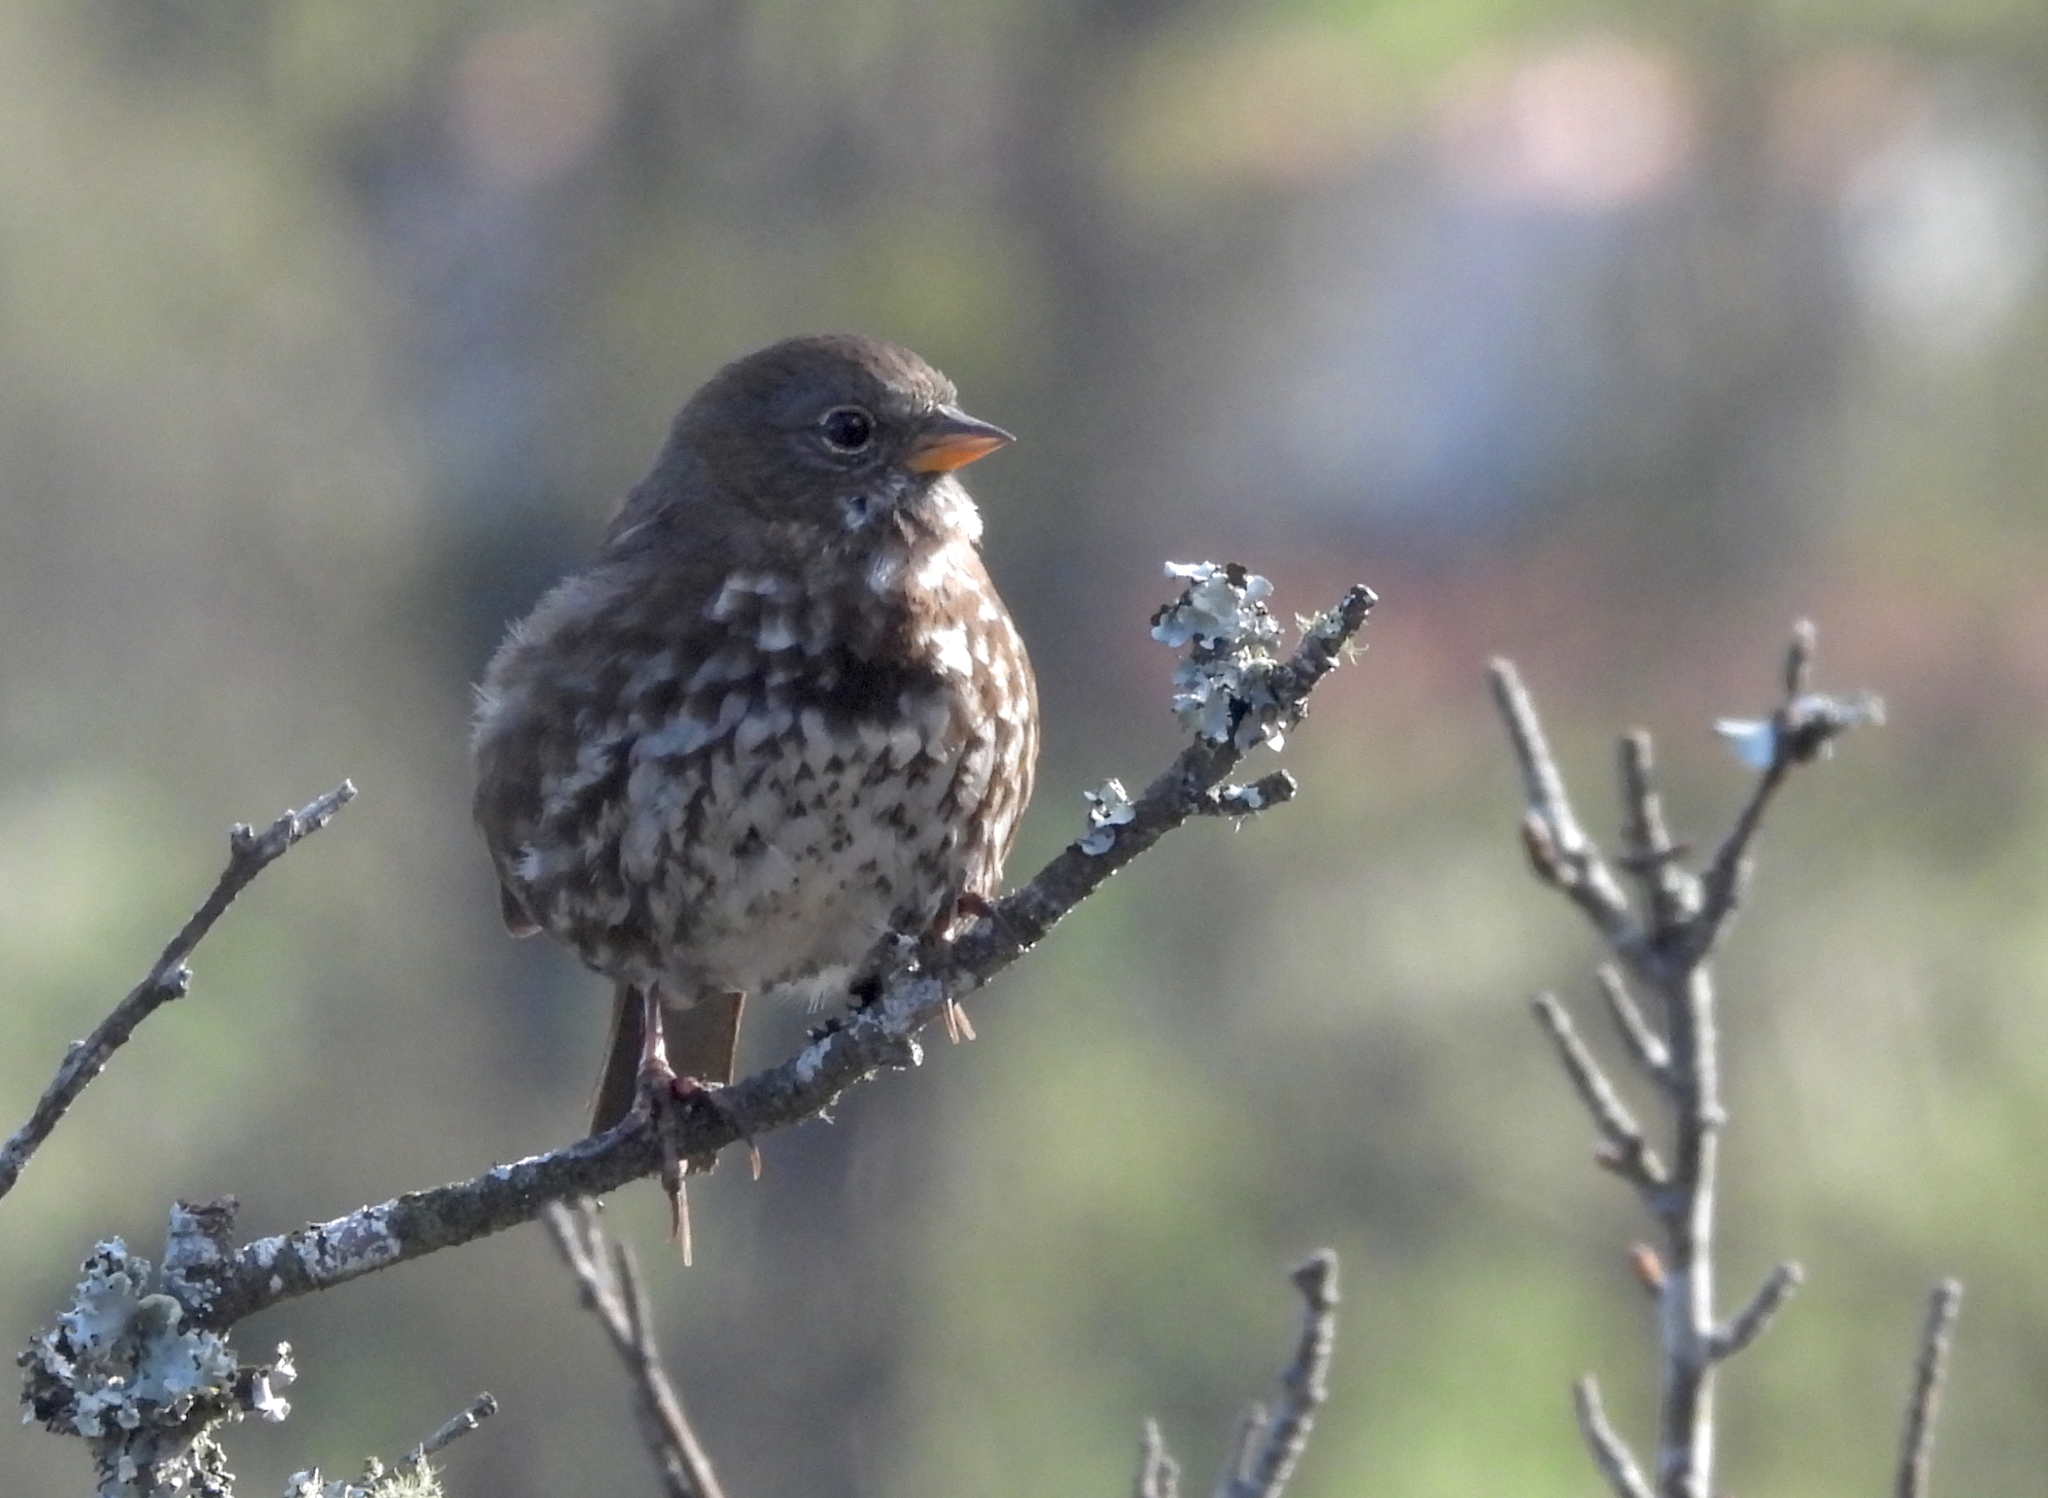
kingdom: Animalia
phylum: Chordata
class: Aves
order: Passeriformes
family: Passerellidae
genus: Passerella
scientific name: Passerella iliaca
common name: Fox sparrow
